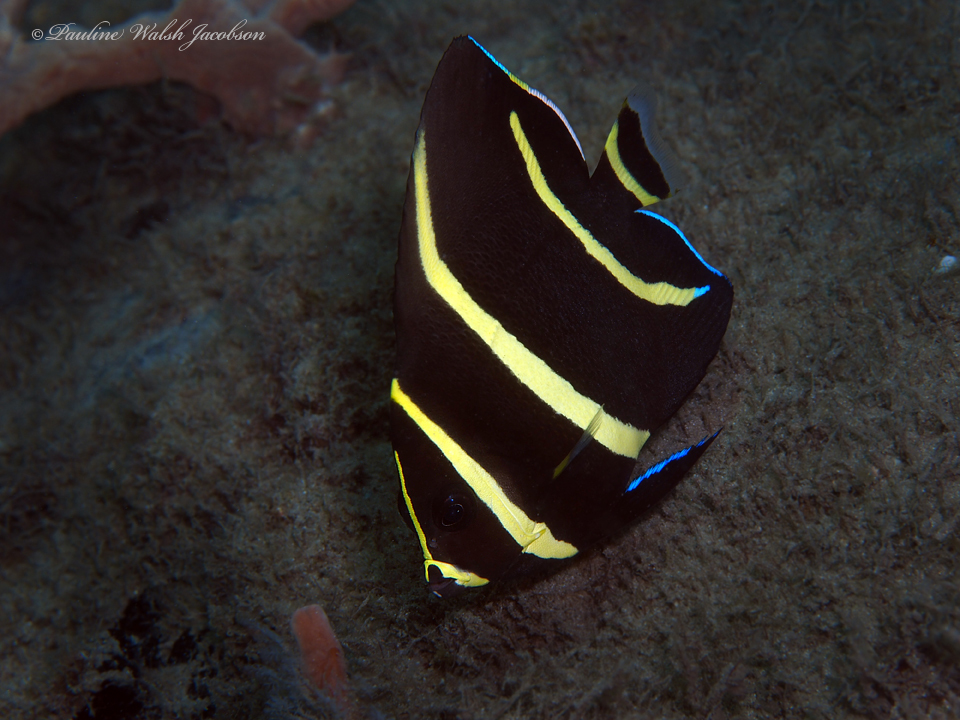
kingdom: Animalia
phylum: Chordata
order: Perciformes
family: Pomacanthidae
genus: Pomacanthus
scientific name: Pomacanthus arcuatus
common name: Gray angelfish
